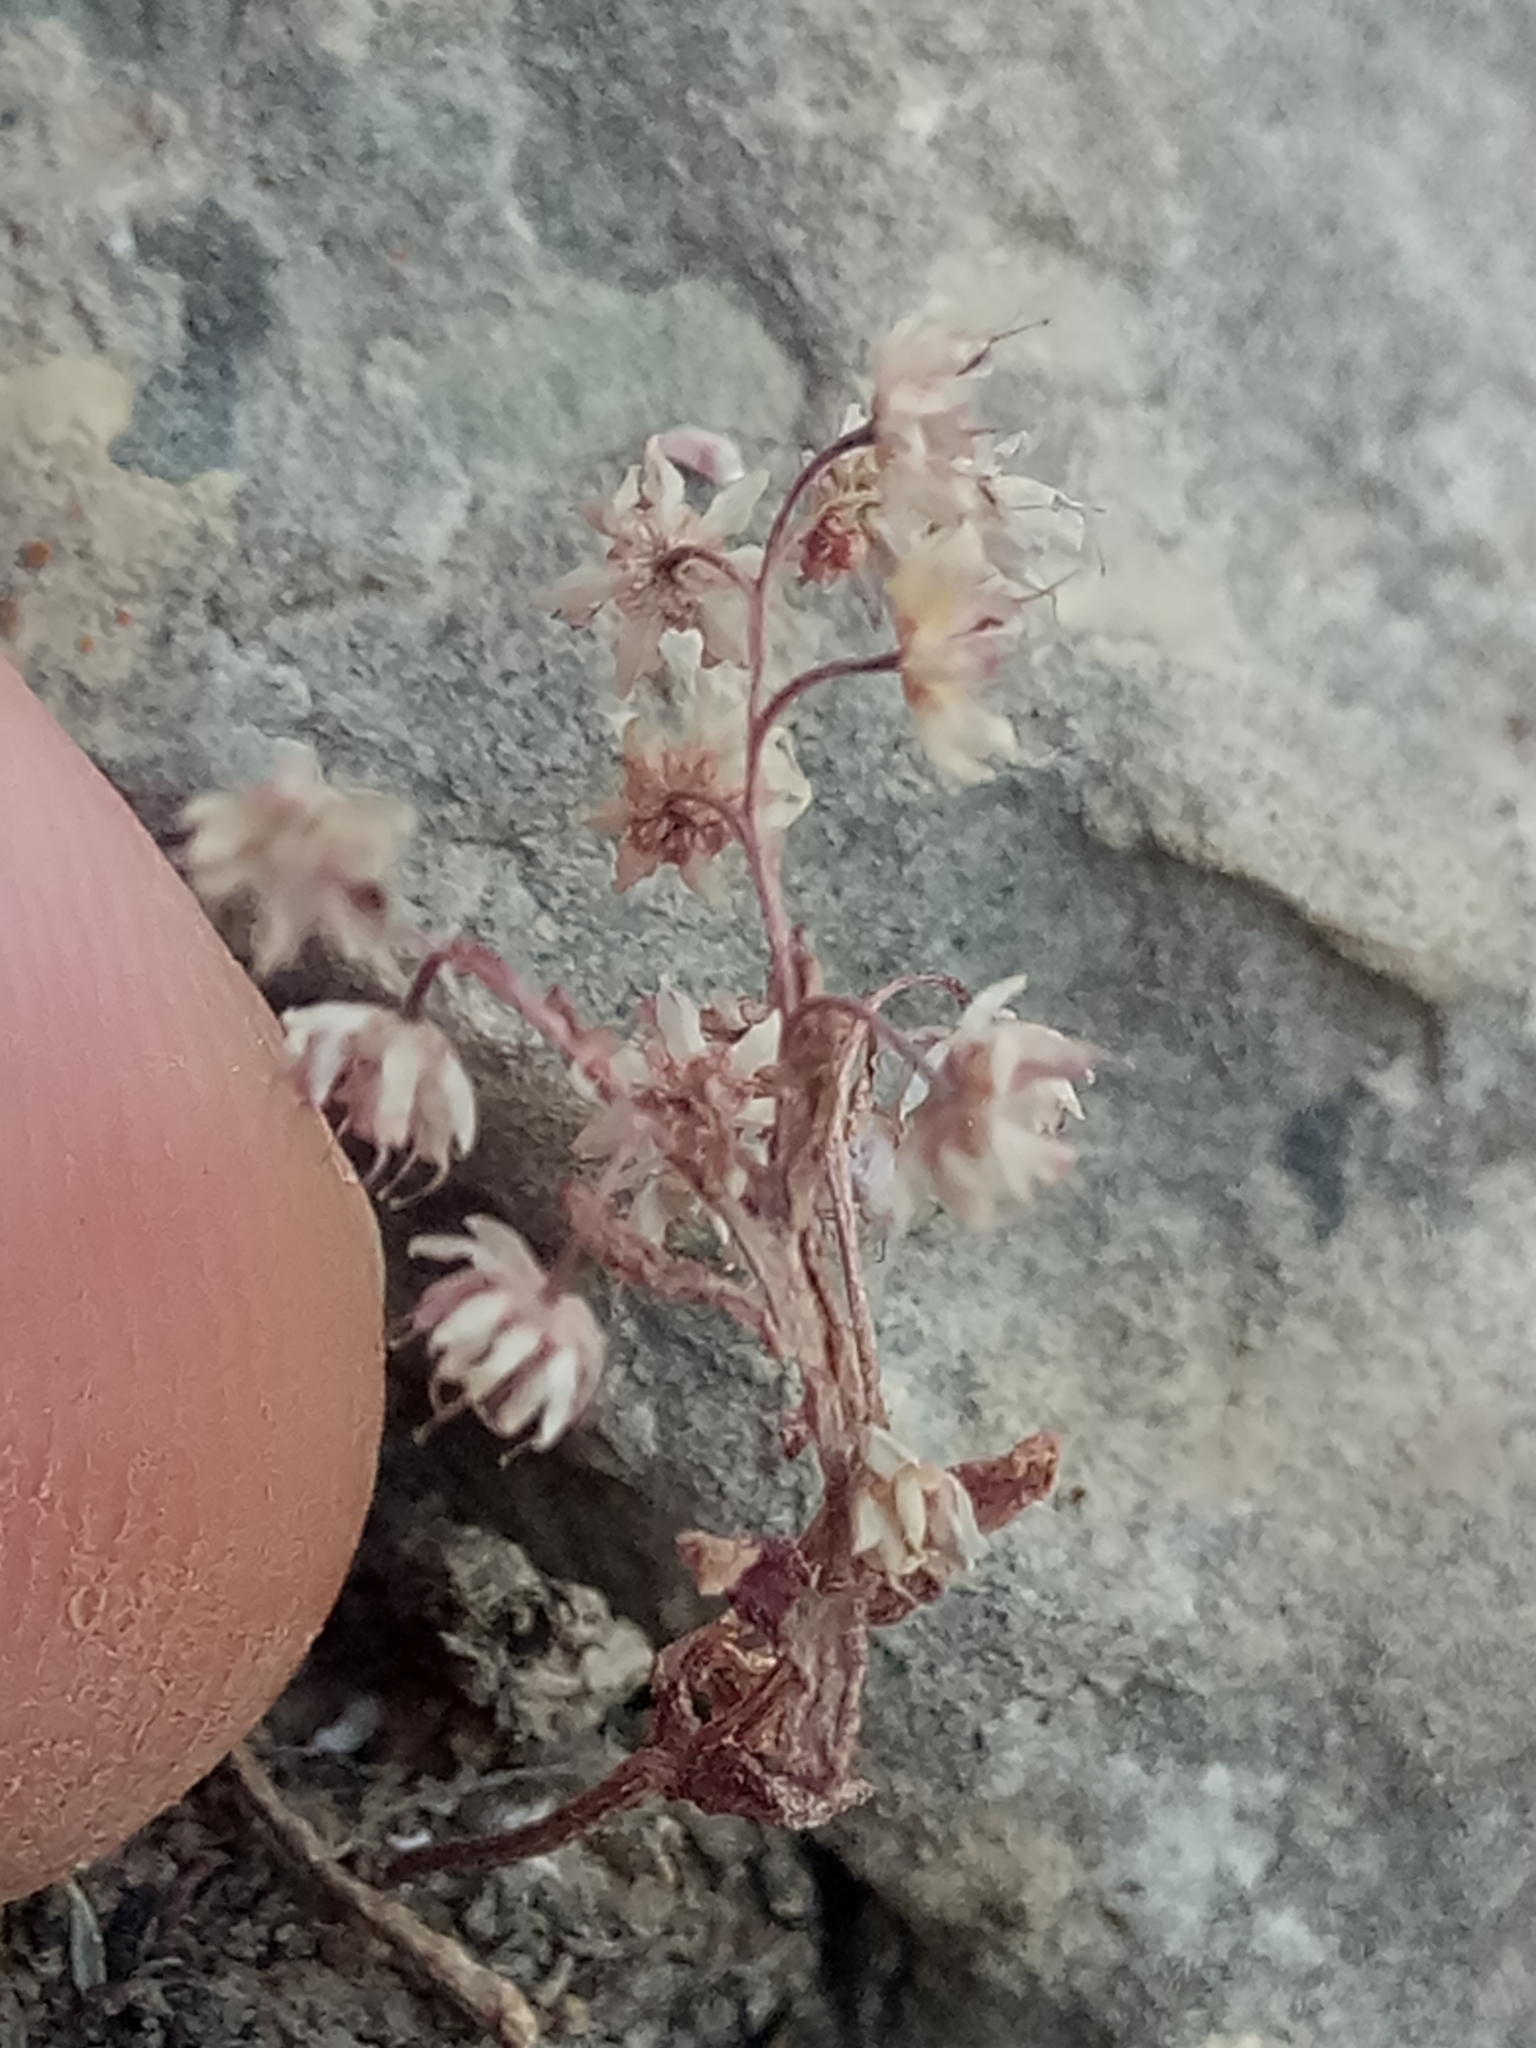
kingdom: Plantae
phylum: Tracheophyta
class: Magnoliopsida
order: Saxifragales
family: Crassulaceae
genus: Sedum
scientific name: Sedum caeruleum
